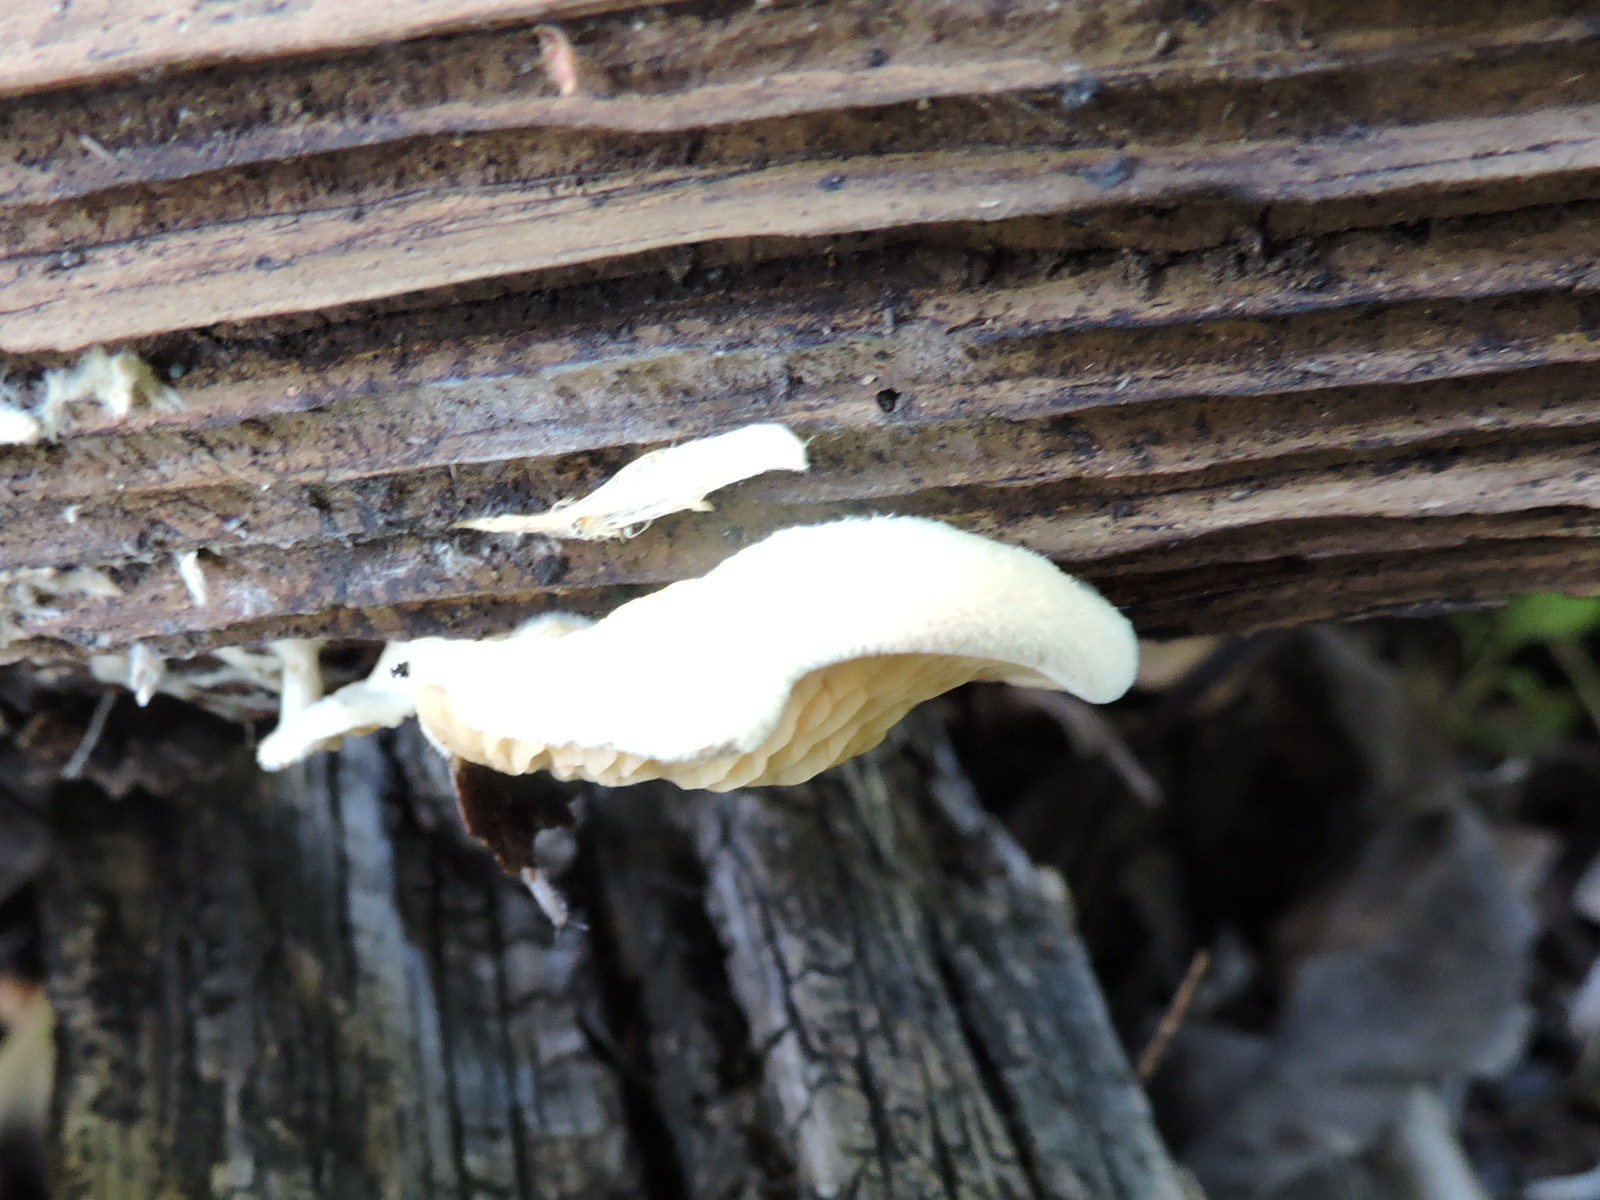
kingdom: Fungi
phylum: Basidiomycota
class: Agaricomycetes
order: Boletales
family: Tapinellaceae
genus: Tapinella
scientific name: Tapinella panuoides
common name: Oyster rollrim
